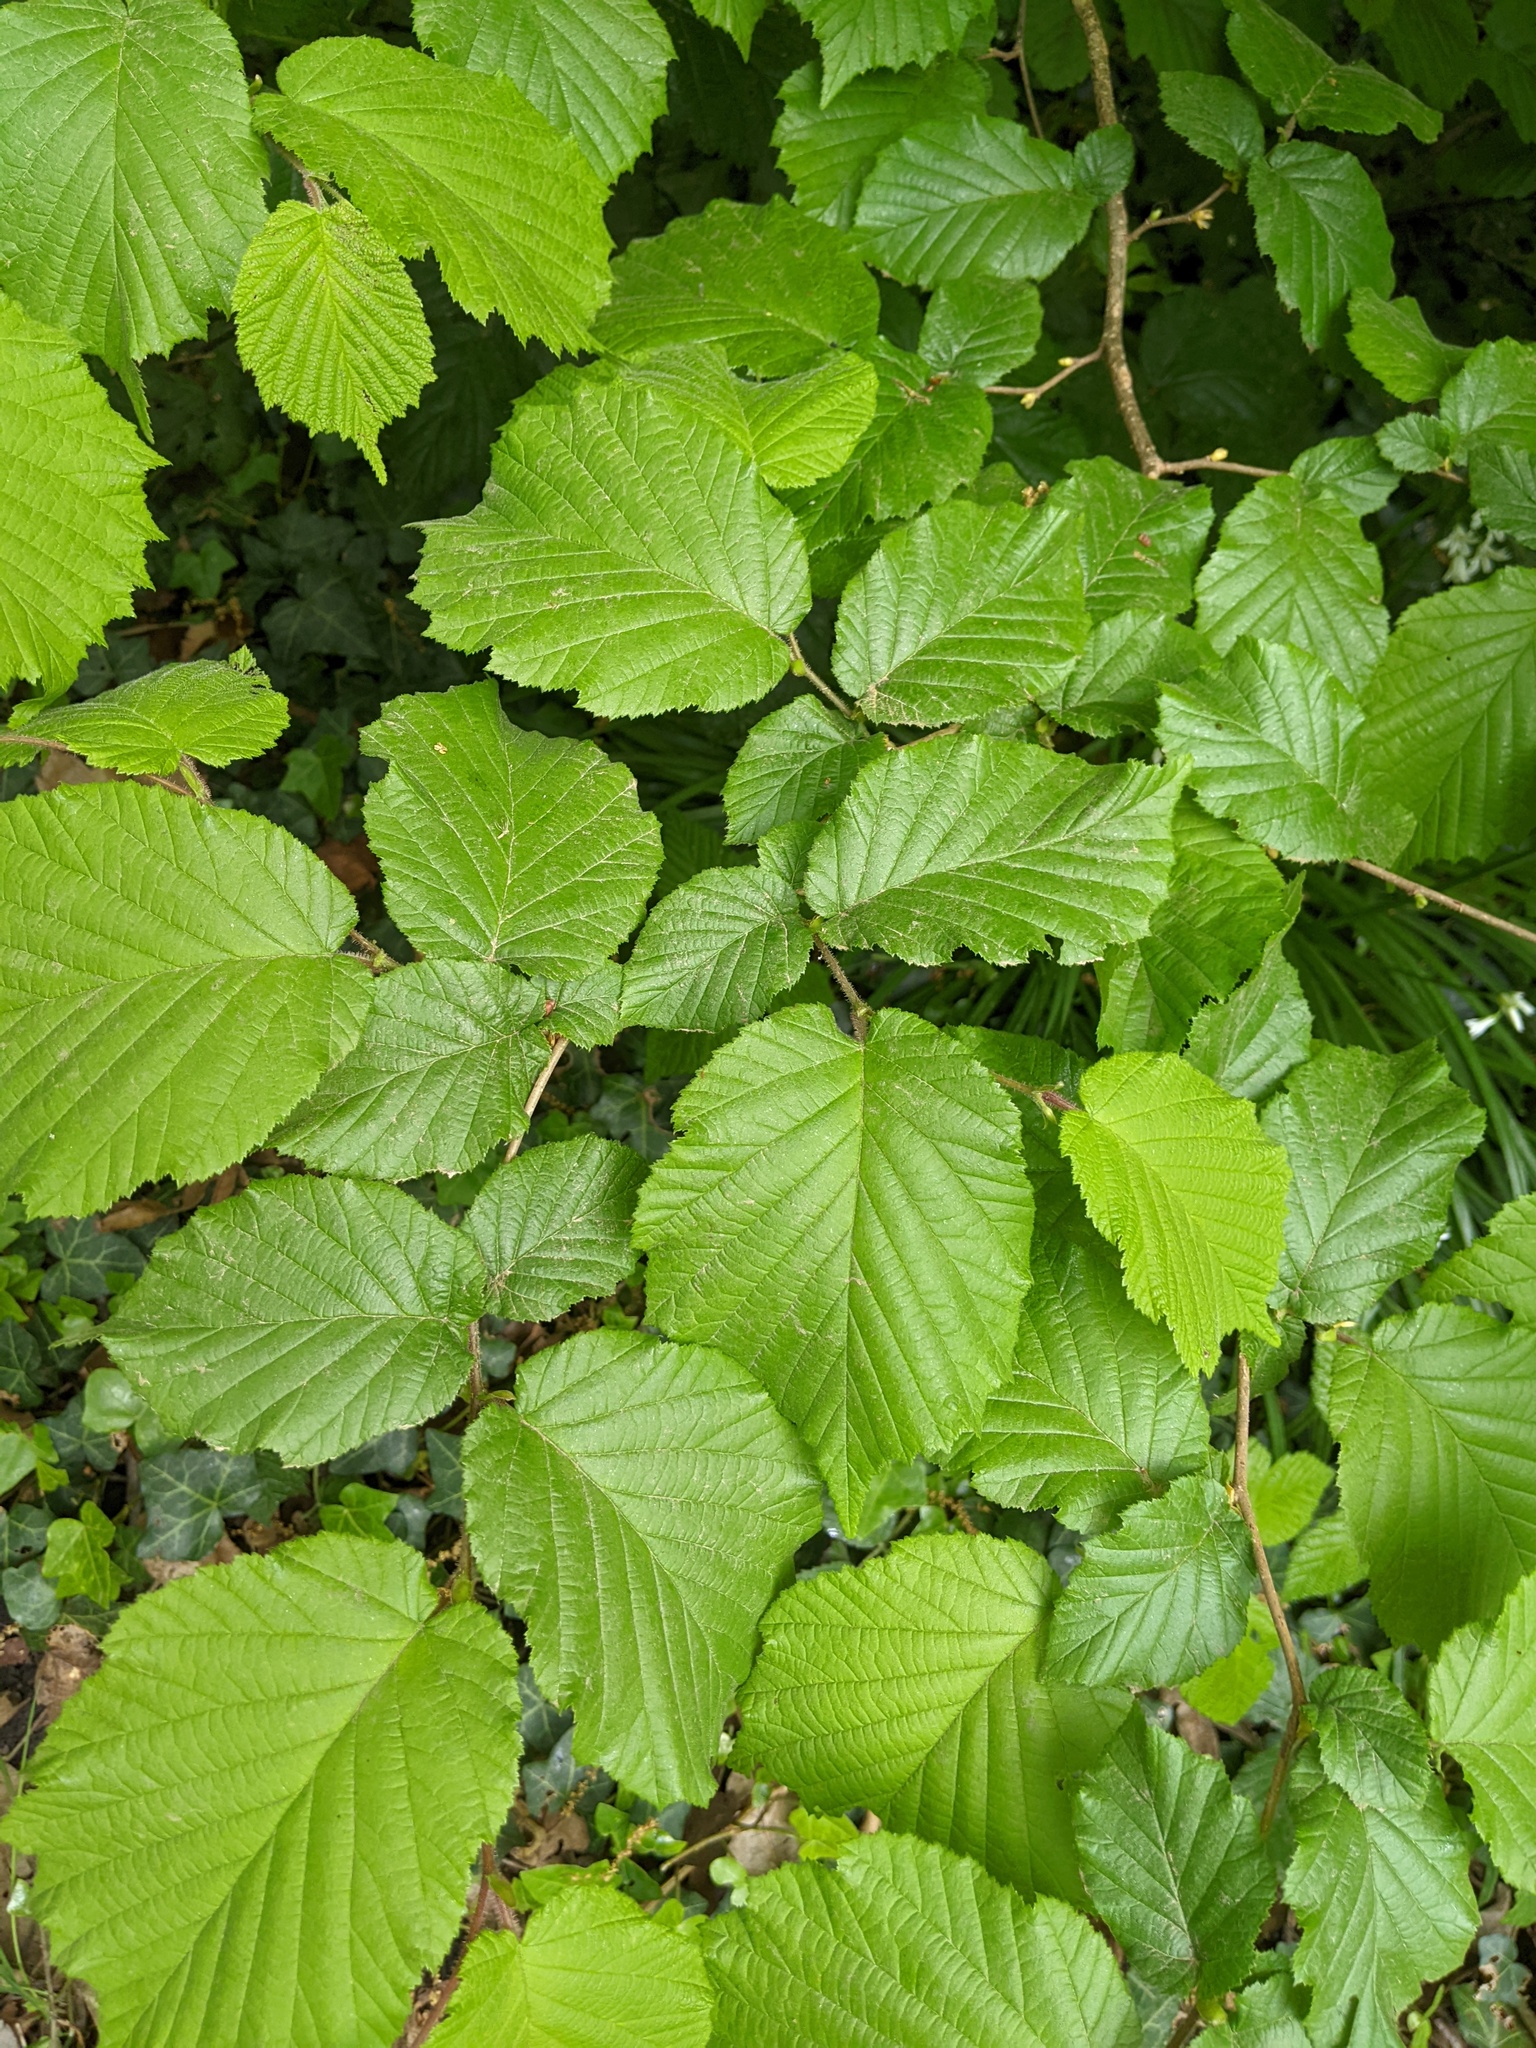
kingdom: Plantae
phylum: Tracheophyta
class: Magnoliopsida
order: Fagales
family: Betulaceae
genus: Corylus
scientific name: Corylus avellana
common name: European hazel
